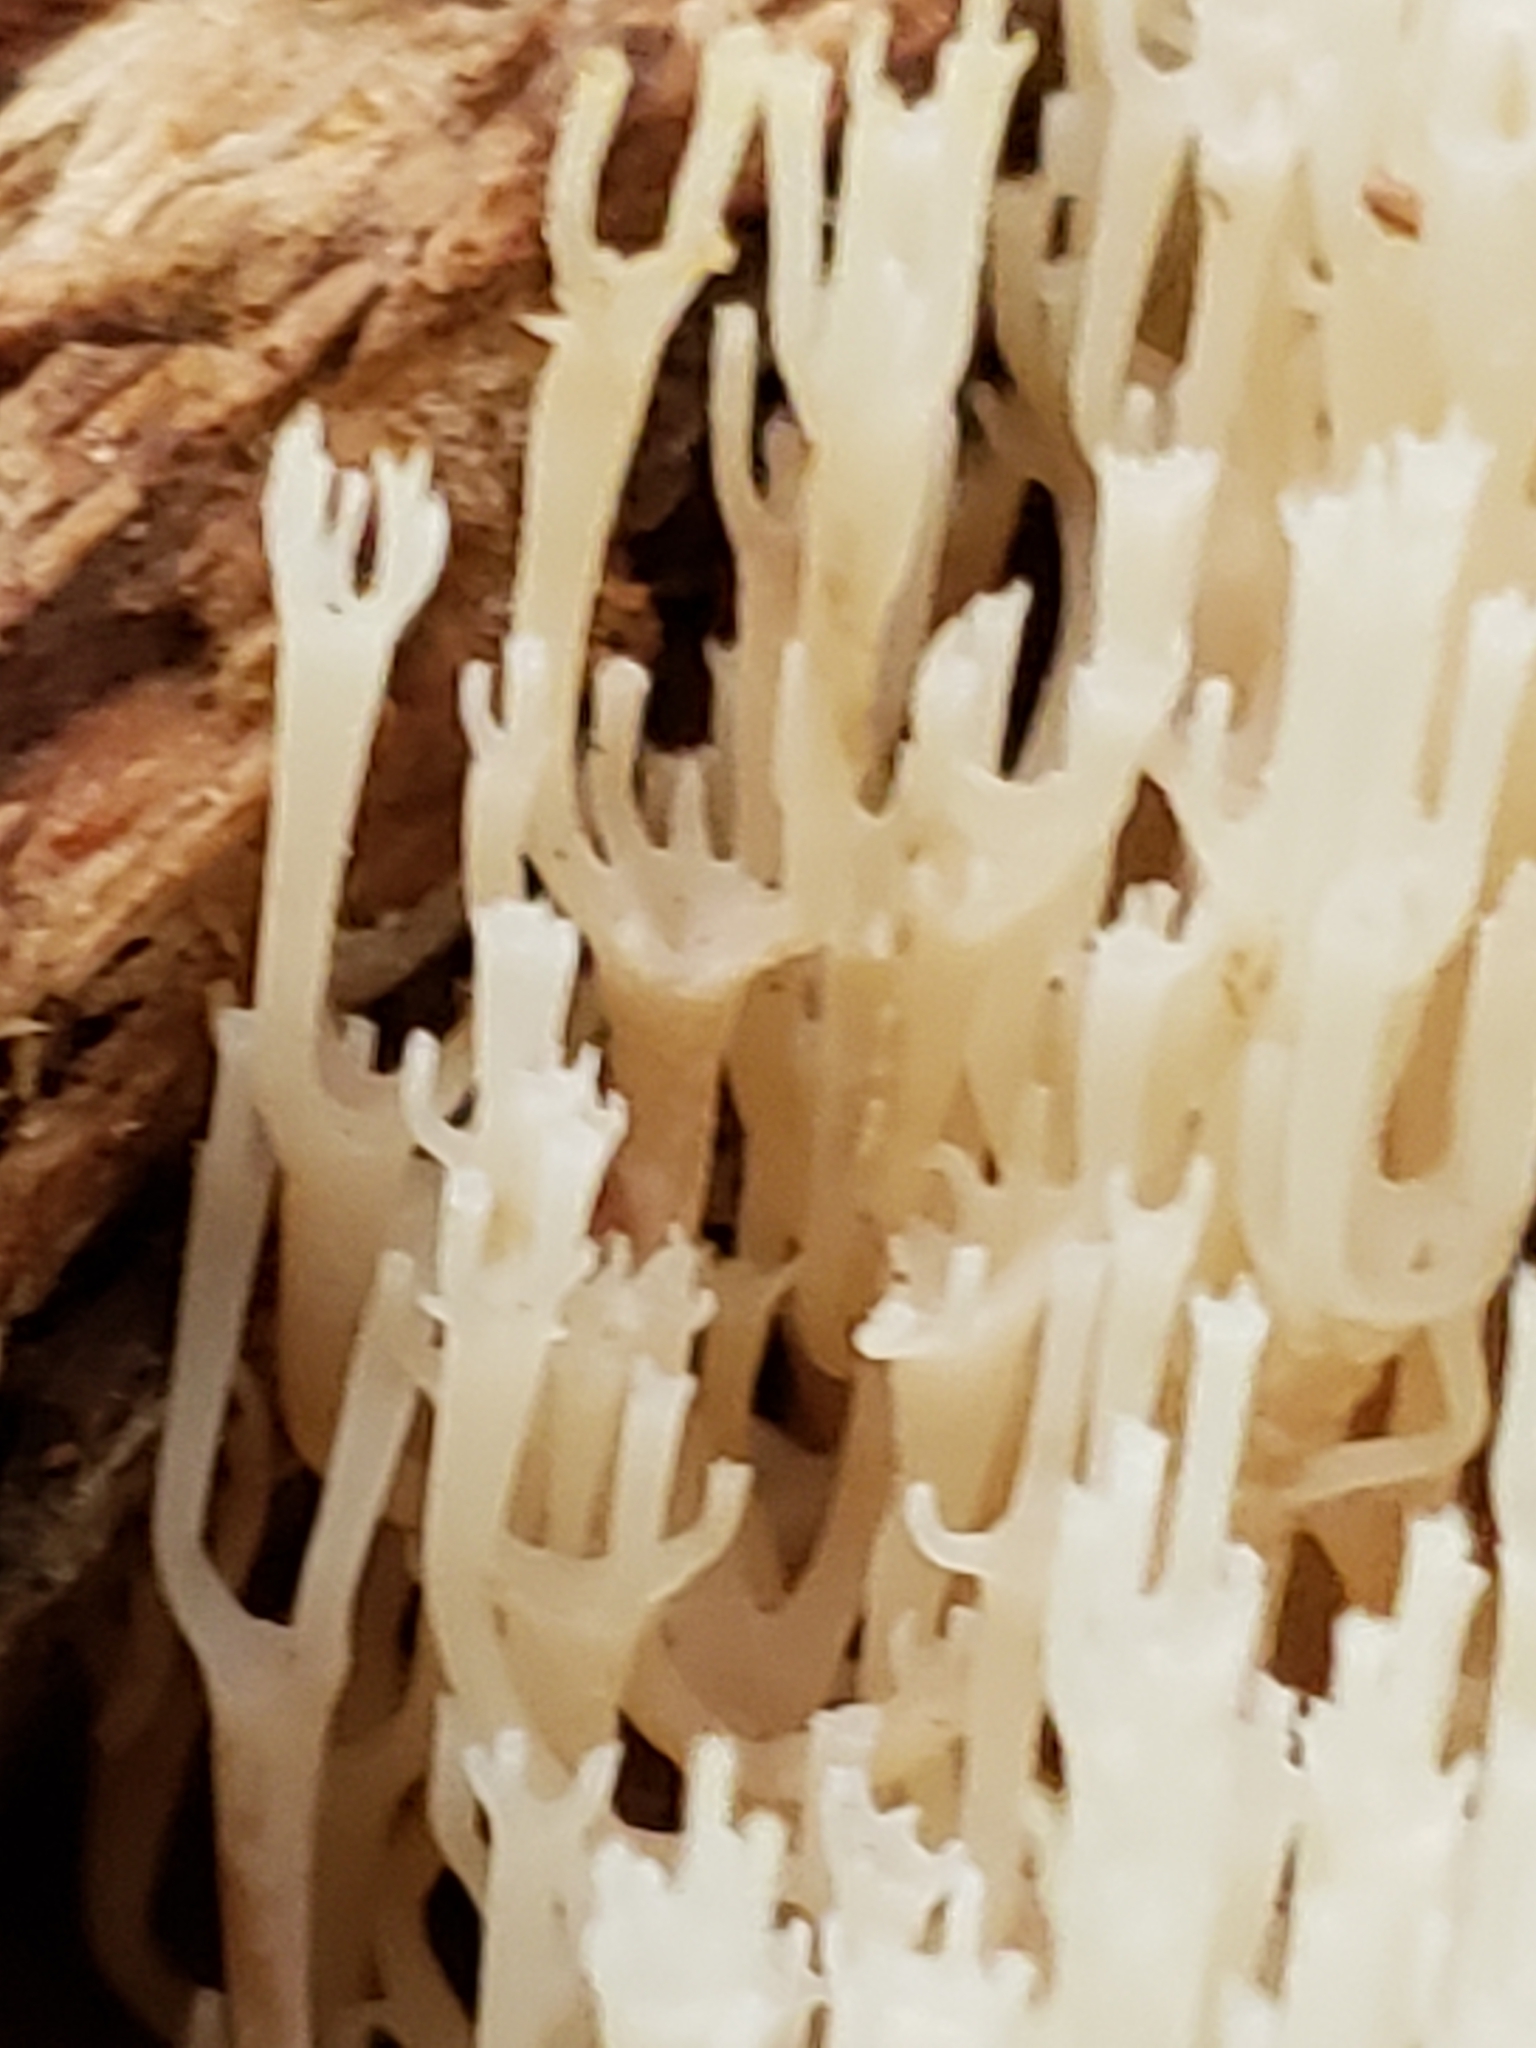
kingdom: Fungi
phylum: Basidiomycota
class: Agaricomycetes
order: Russulales
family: Auriscalpiaceae
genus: Artomyces
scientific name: Artomyces pyxidatus
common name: Crown-tipped coral fungus
